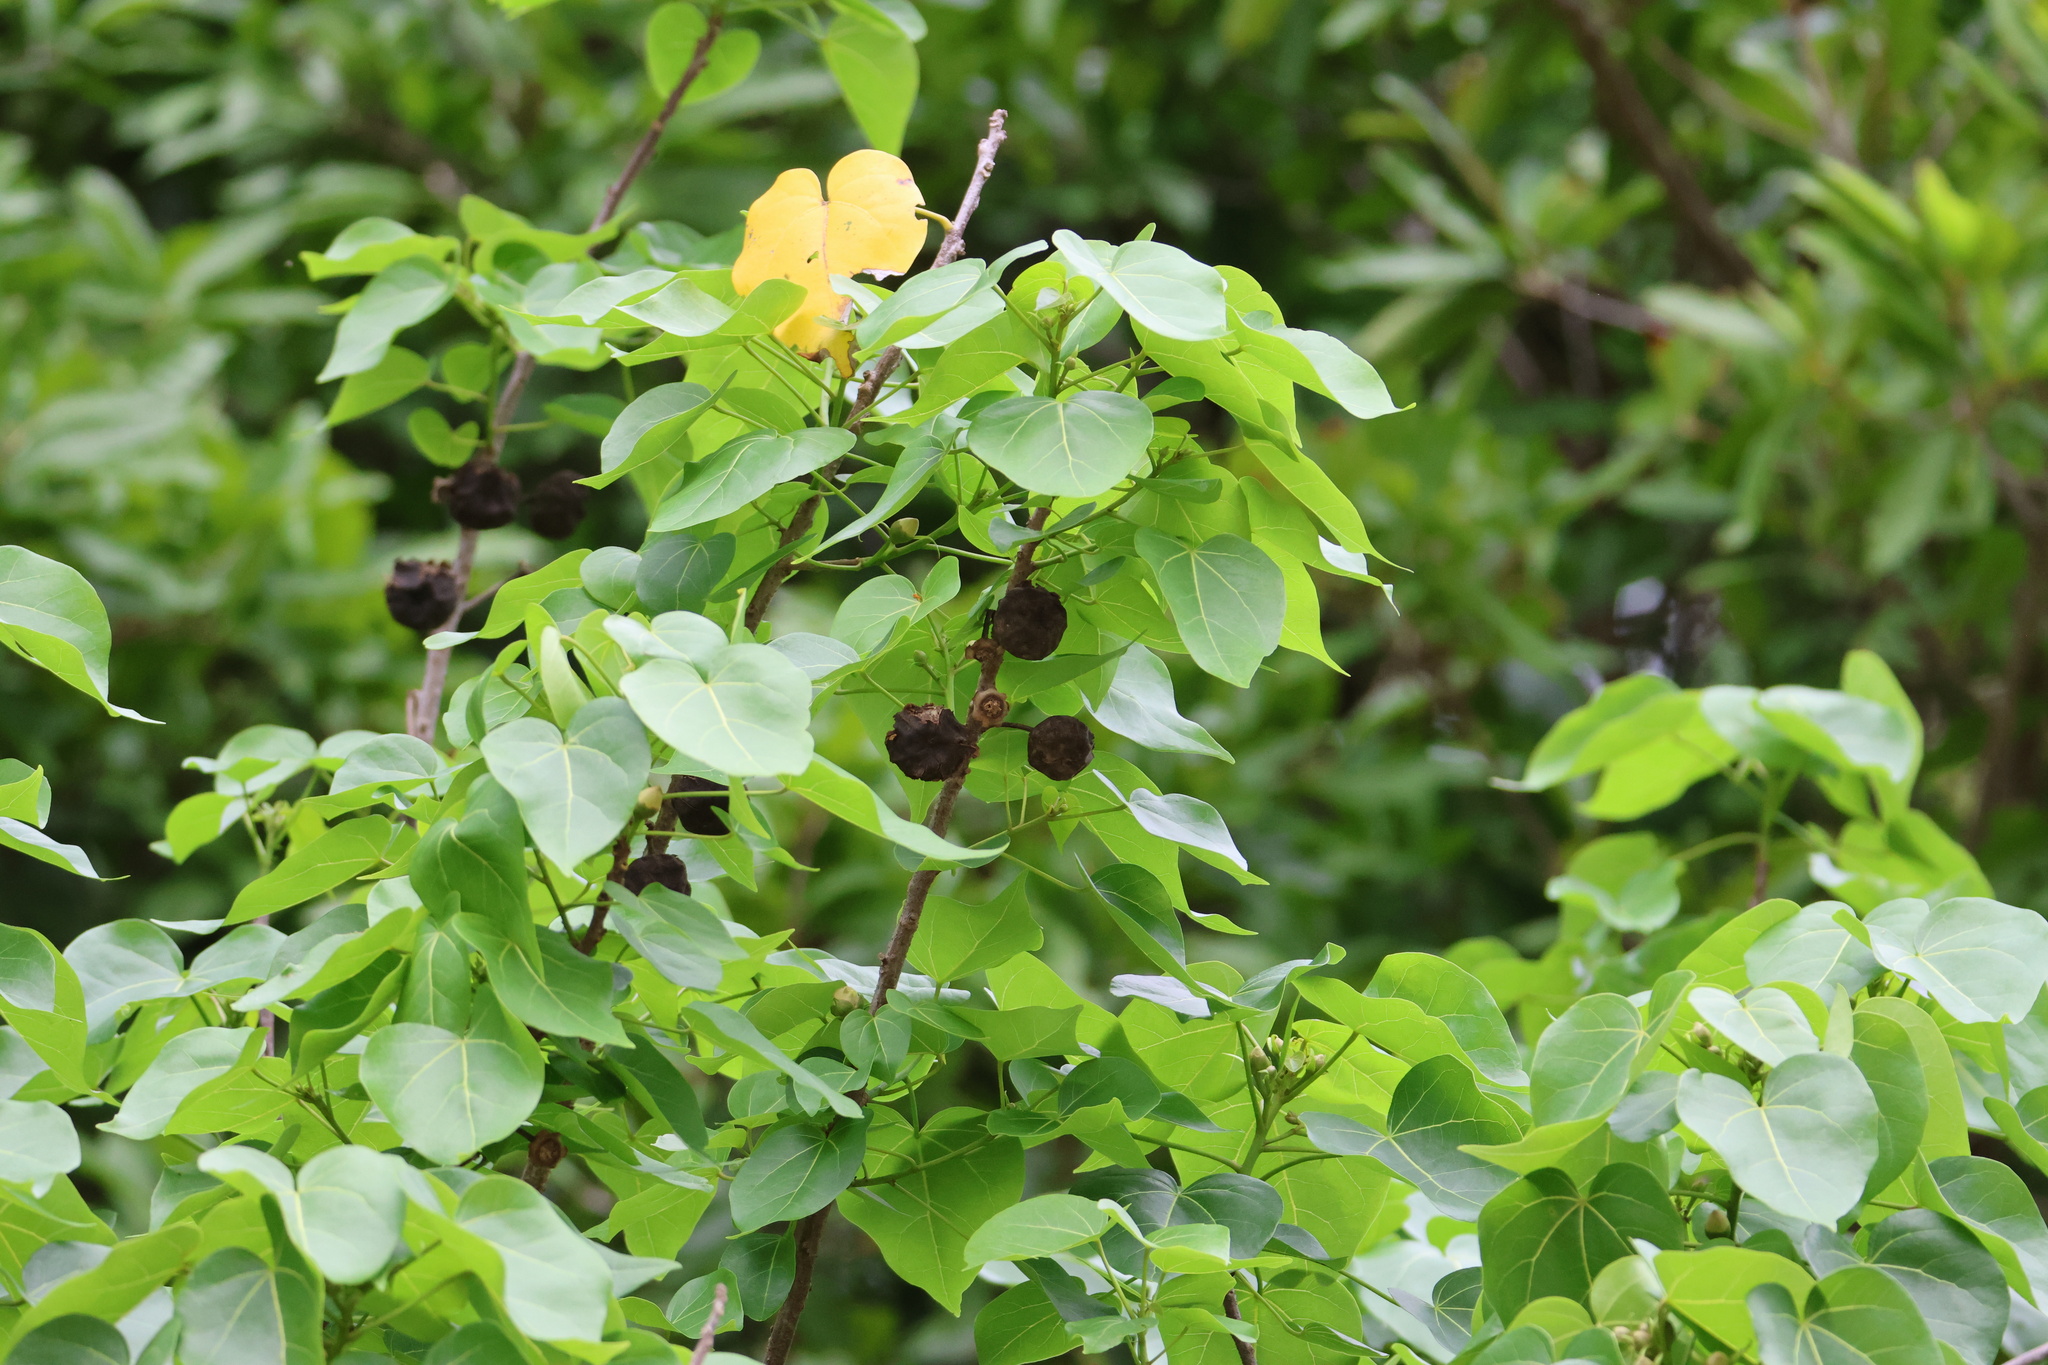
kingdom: Plantae
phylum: Tracheophyta
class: Magnoliopsida
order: Malvales
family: Malvaceae
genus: Thespesia
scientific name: Thespesia populnea
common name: Seaside mahoe
